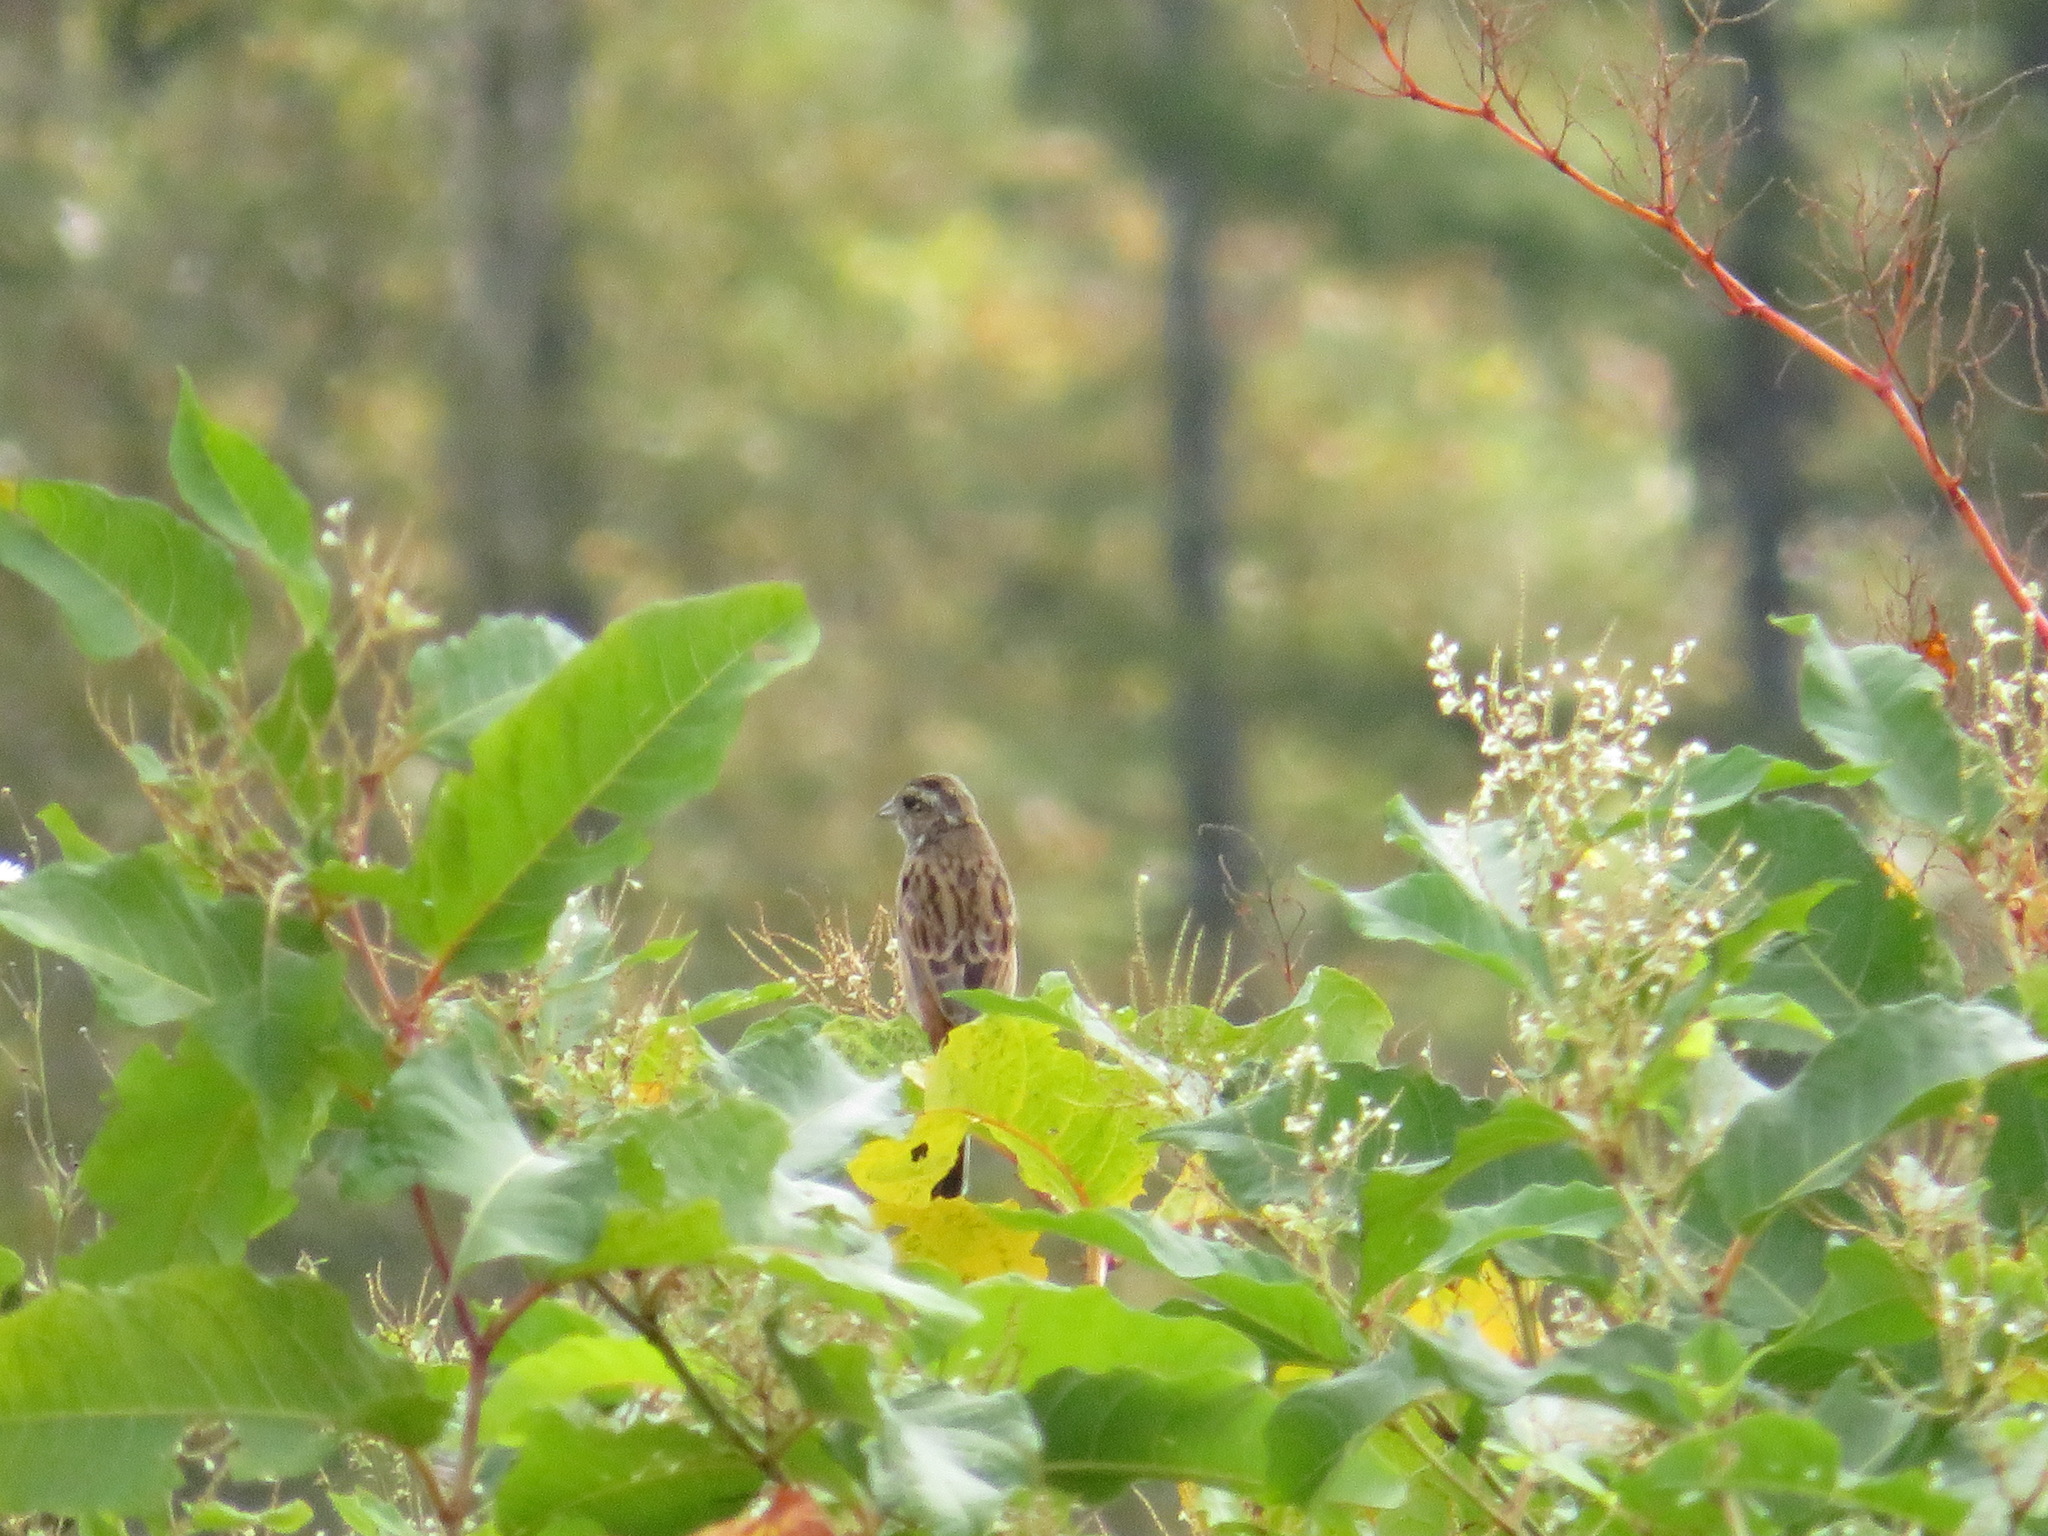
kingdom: Animalia
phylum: Chordata
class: Aves
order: Passeriformes
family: Emberizidae
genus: Emberiza
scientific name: Emberiza cioides
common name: Meadow bunting
